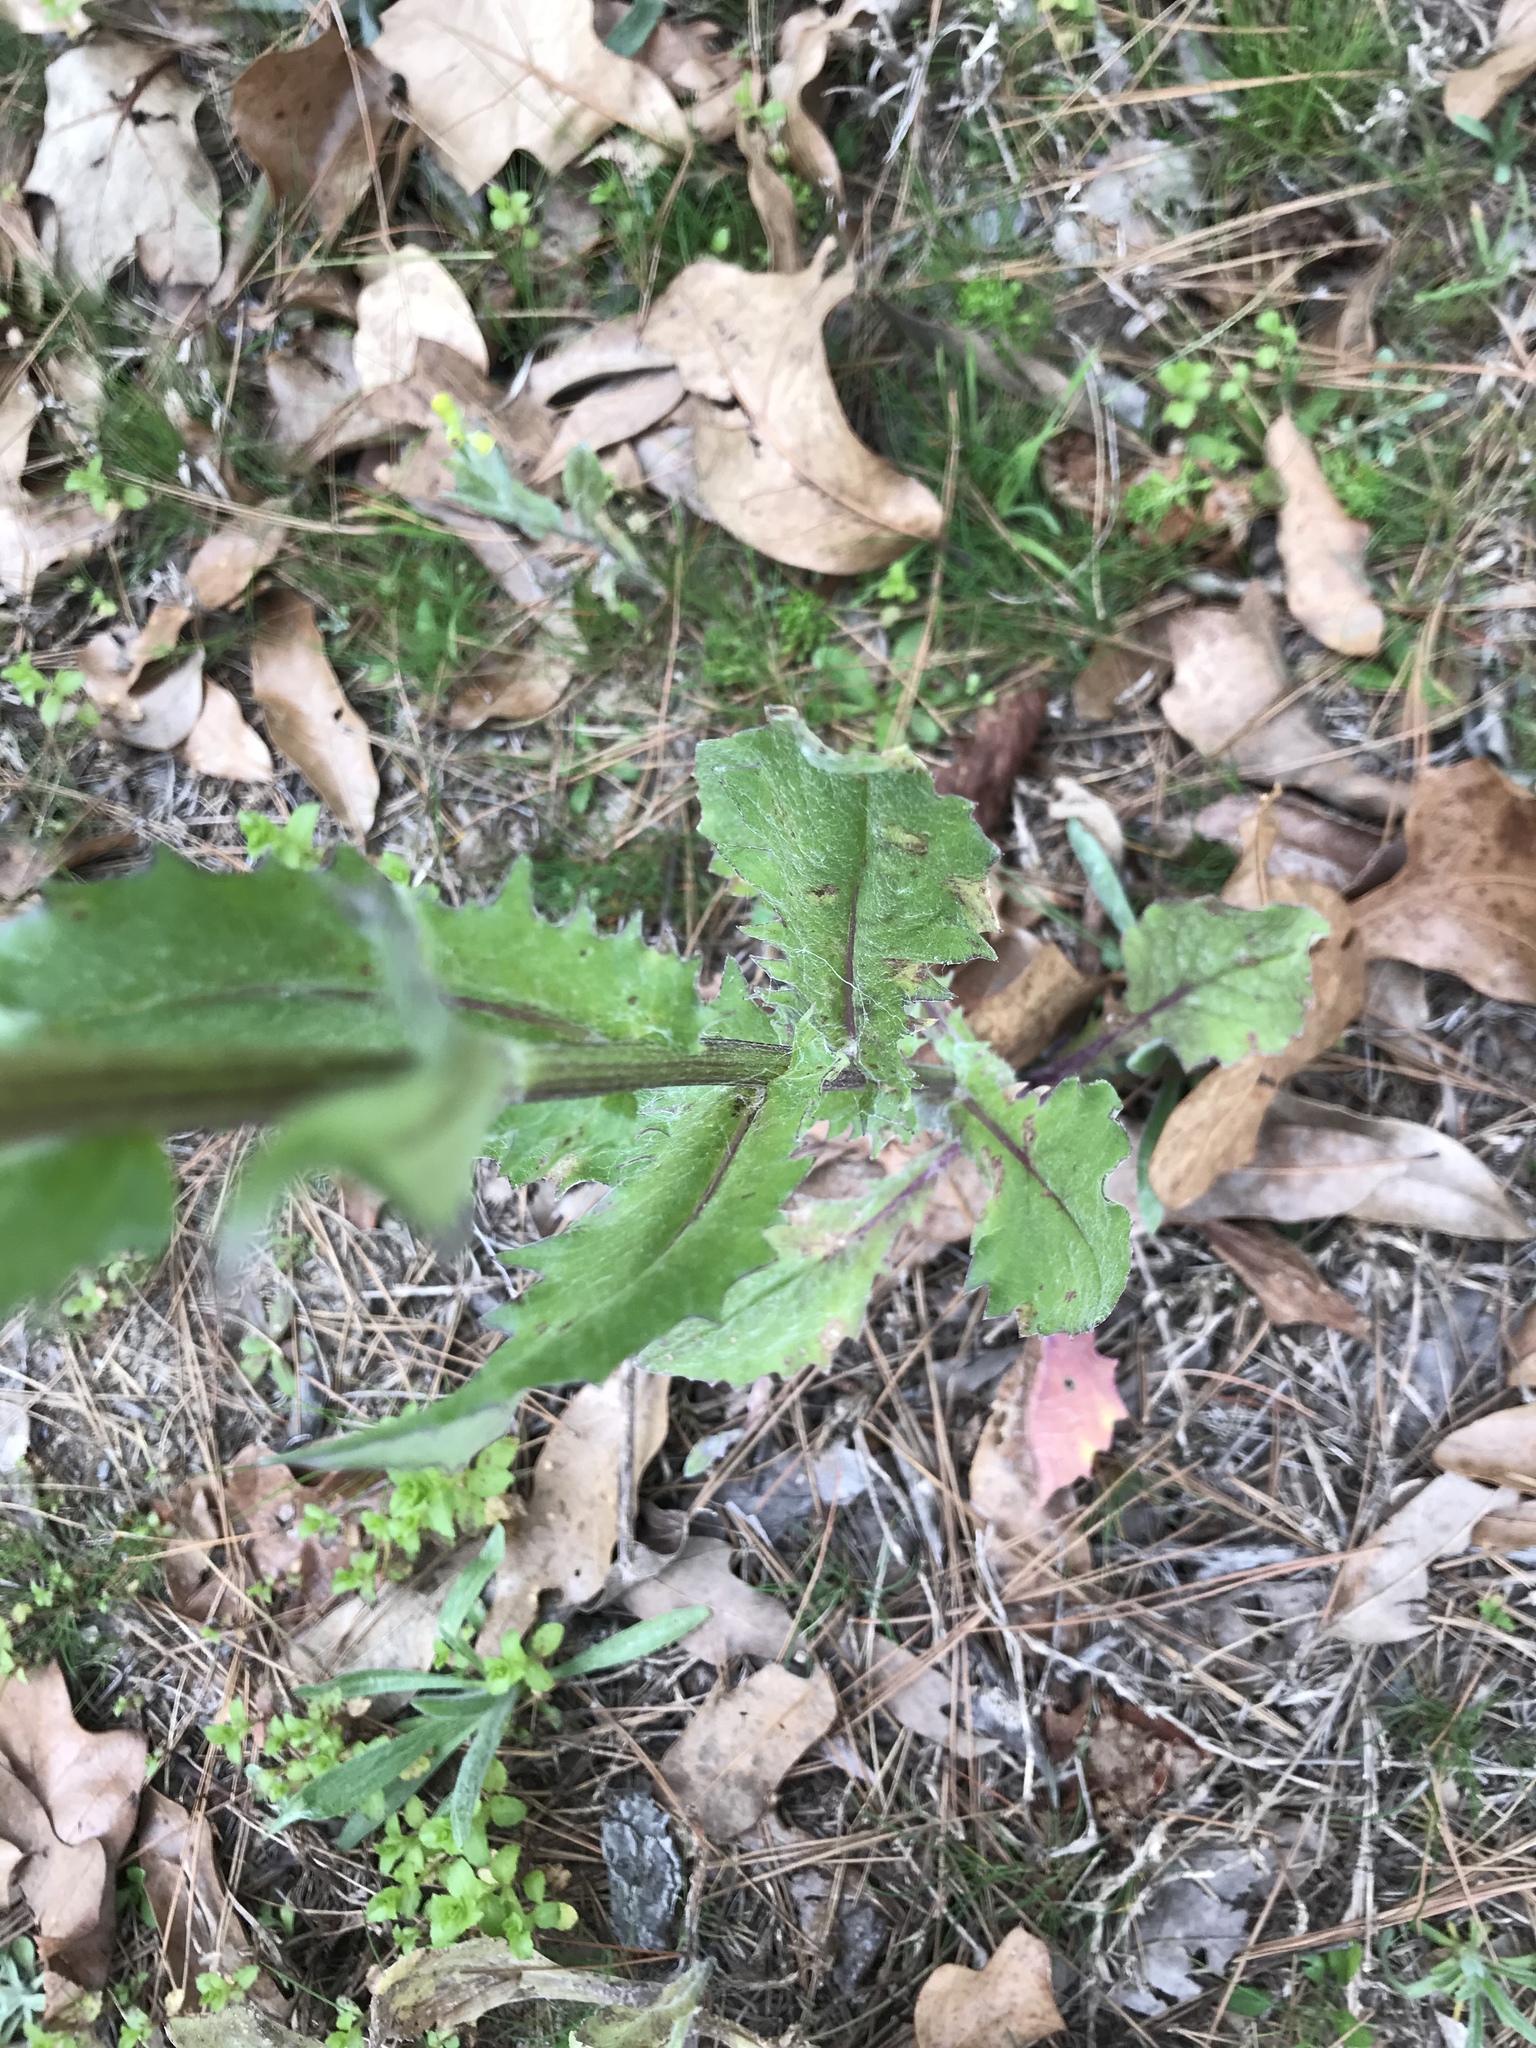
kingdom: Plantae
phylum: Tracheophyta
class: Magnoliopsida
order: Asterales
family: Asteraceae
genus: Senecio
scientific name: Senecio ampullaceus
